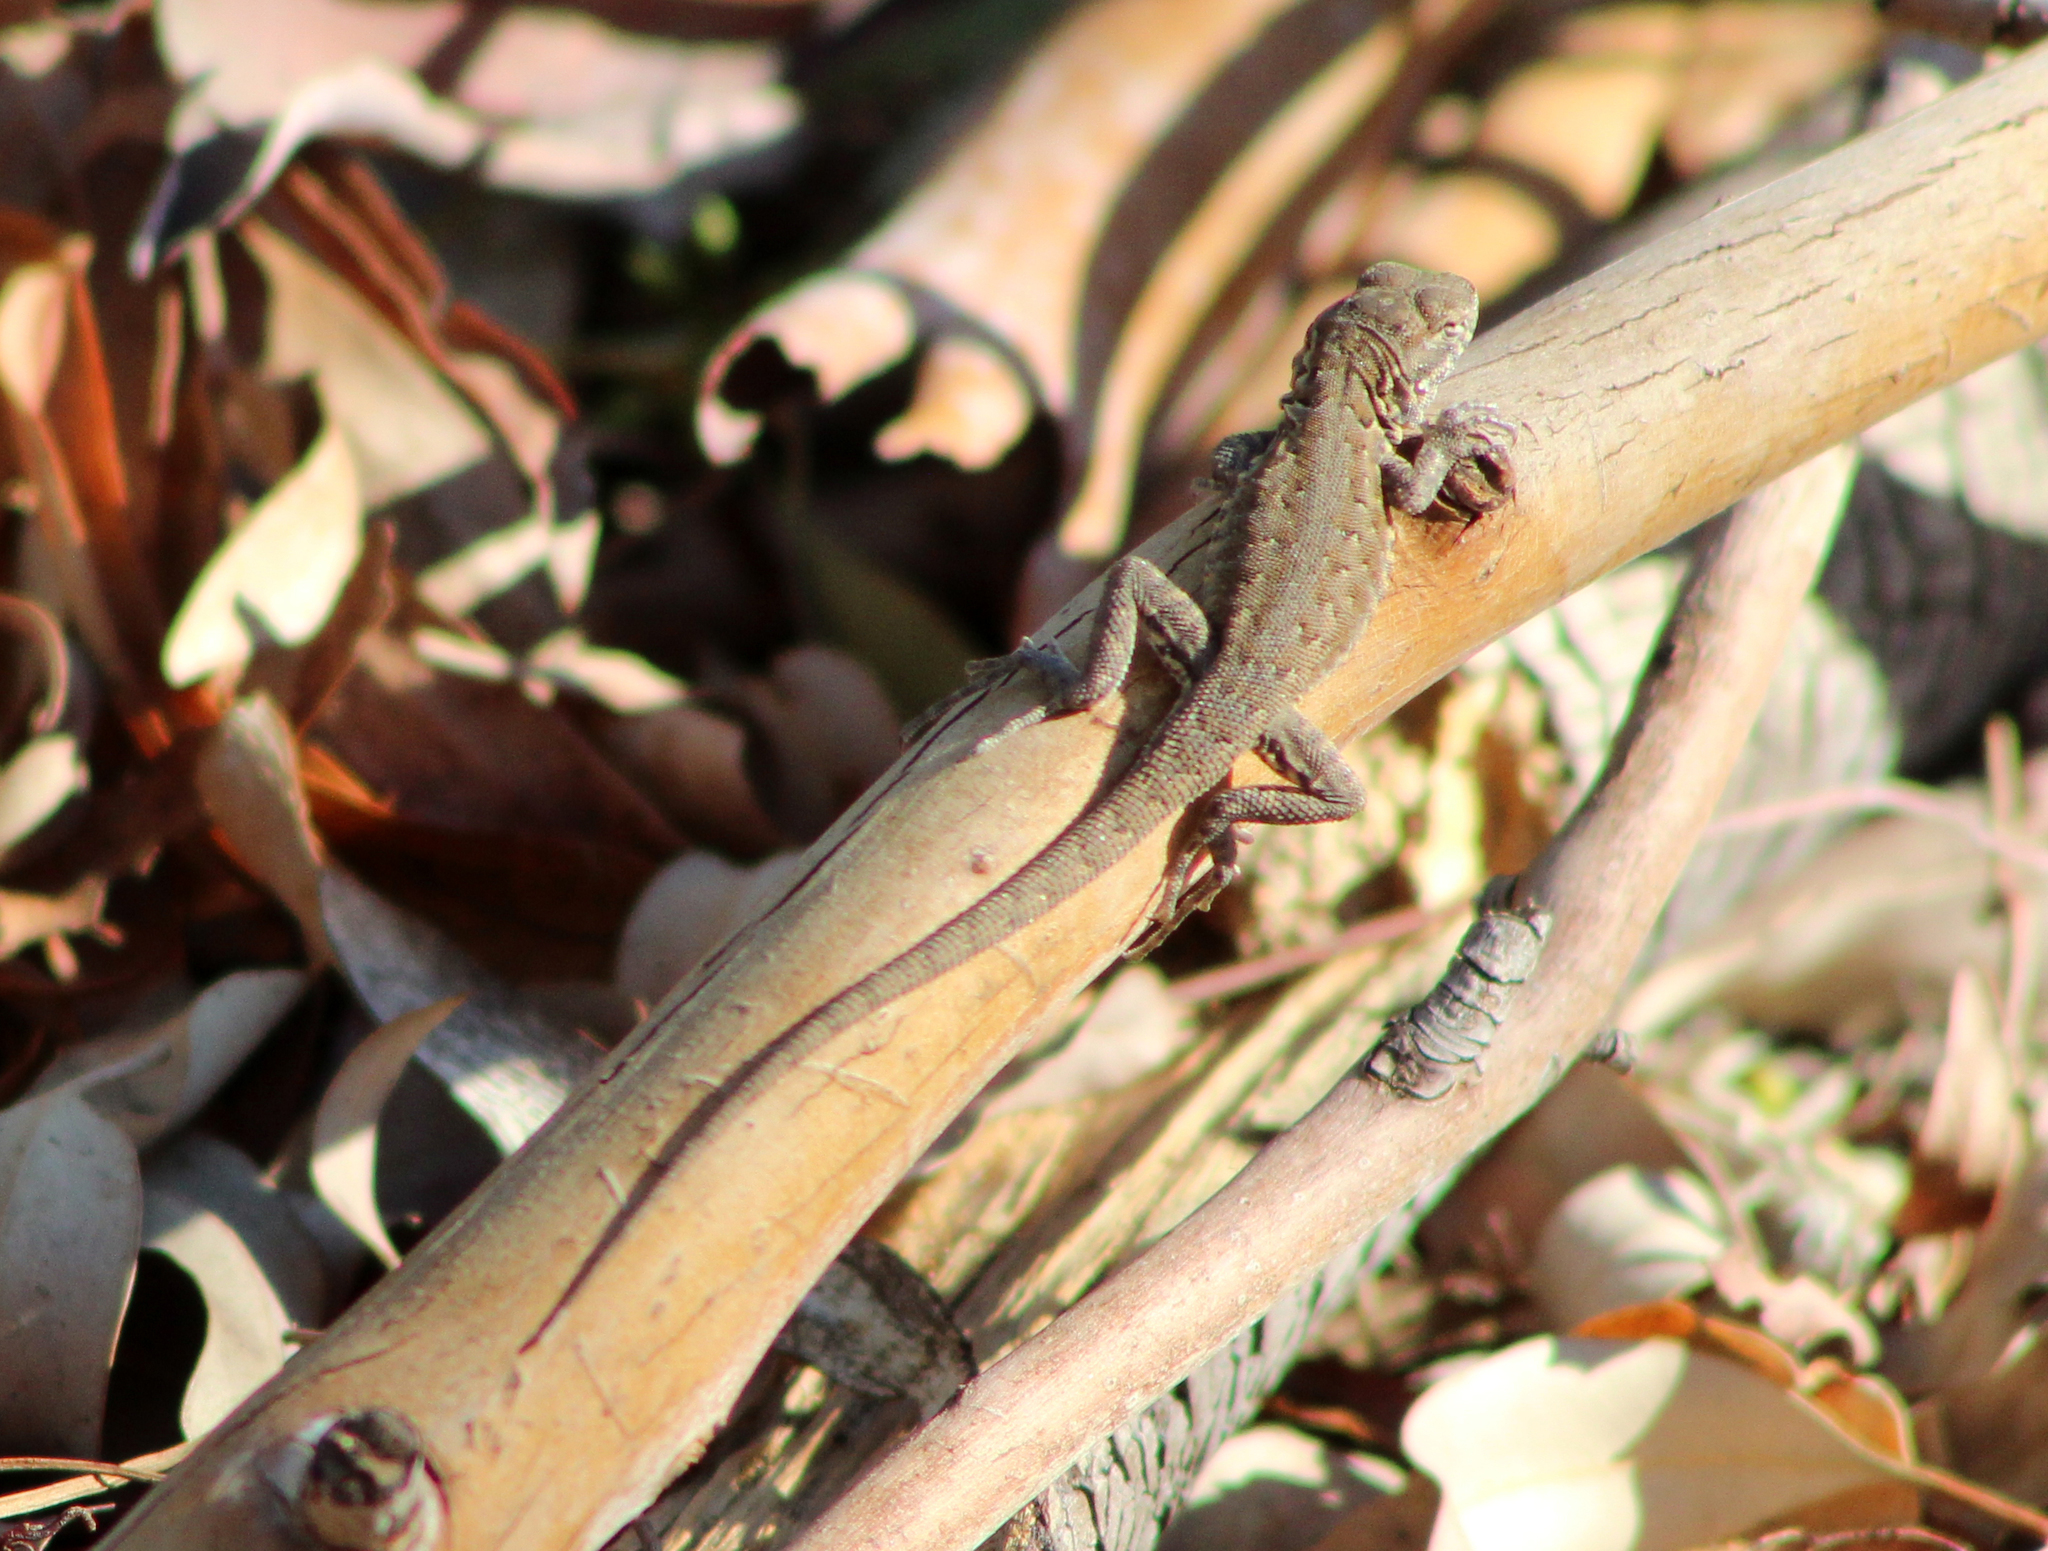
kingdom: Animalia
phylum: Chordata
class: Squamata
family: Phrynosomatidae
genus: Uta
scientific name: Uta stansburiana
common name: Side-blotched lizard
